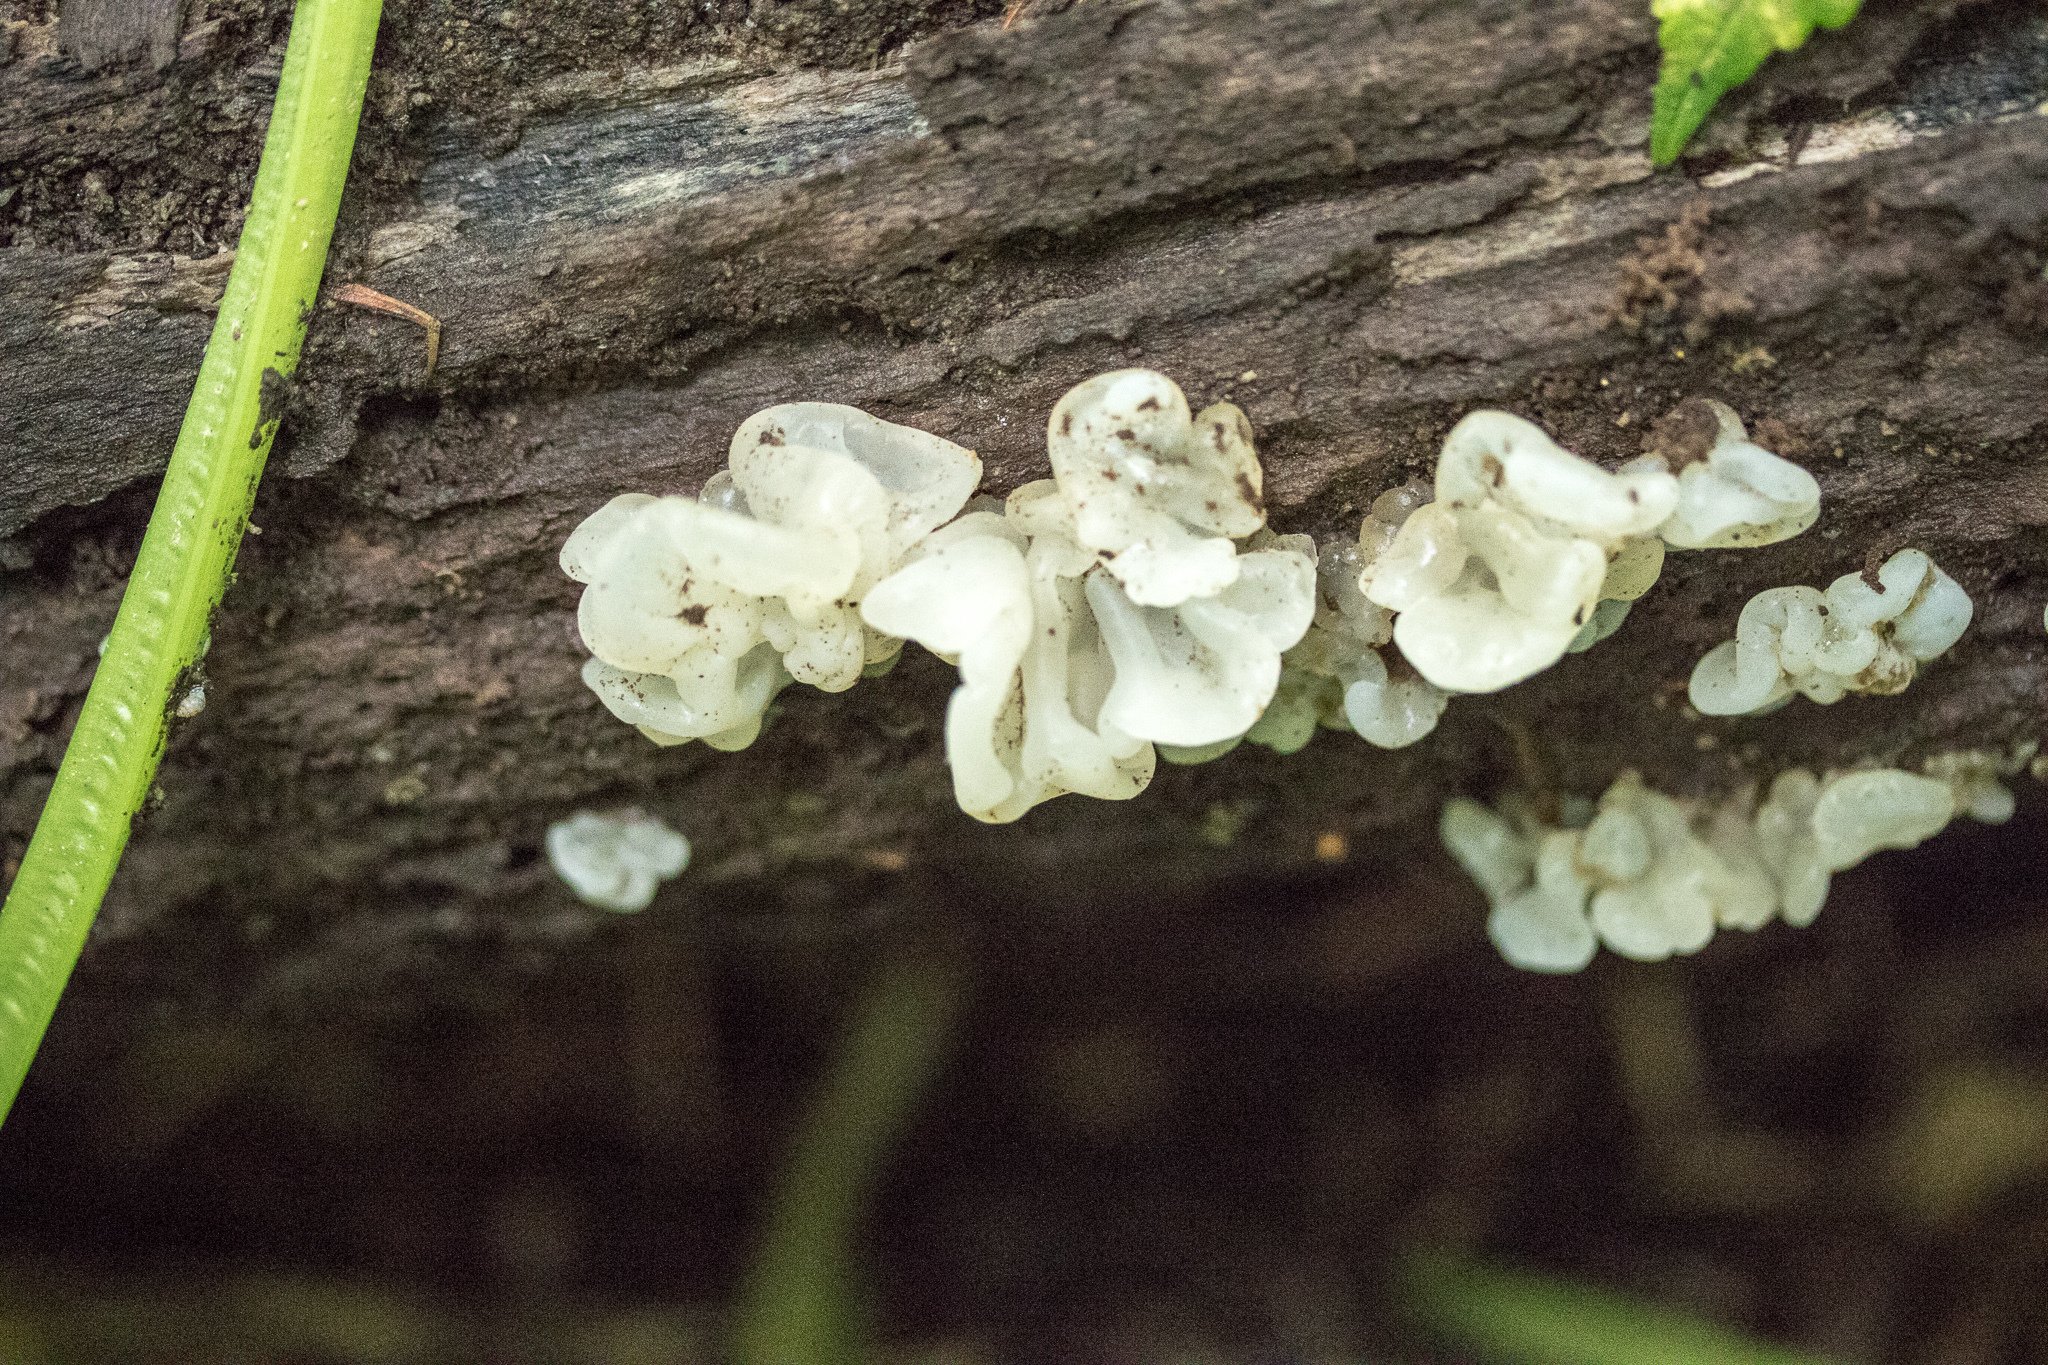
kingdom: Fungi
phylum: Basidiomycota
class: Agaricomycetes
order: Auriculariales
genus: Ductifera
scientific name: Ductifera pululahuana
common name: White jelly fungus
